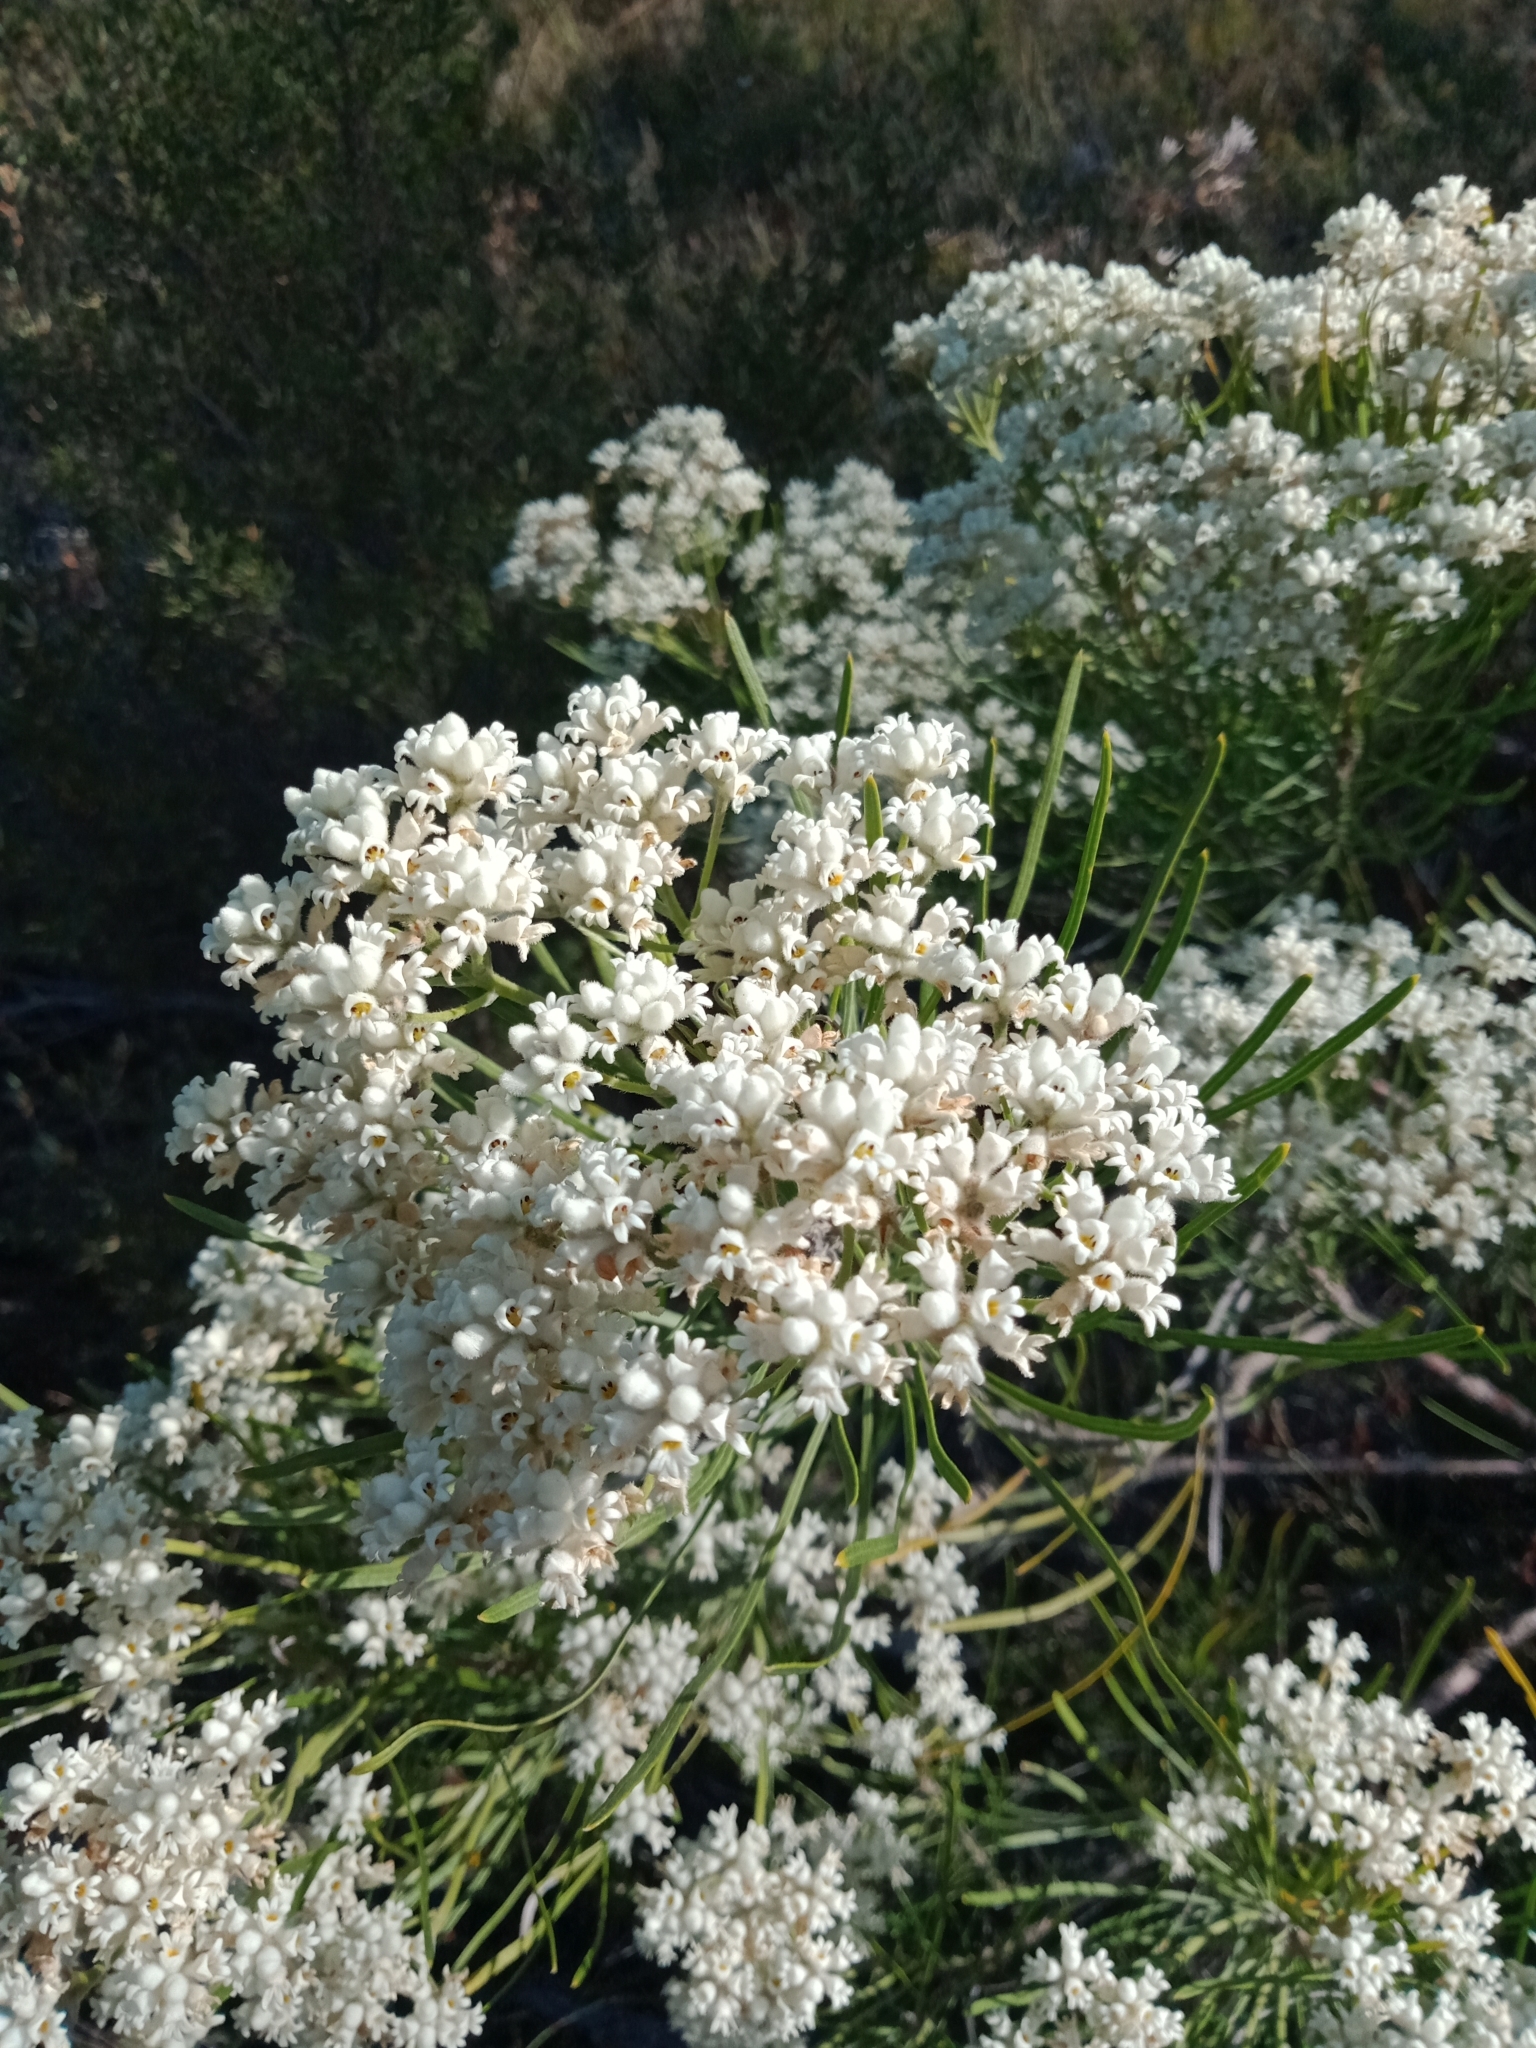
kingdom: Plantae
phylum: Tracheophyta
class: Magnoliopsida
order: Proteales
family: Proteaceae
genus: Conospermum
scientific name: Conospermum mitchellii
